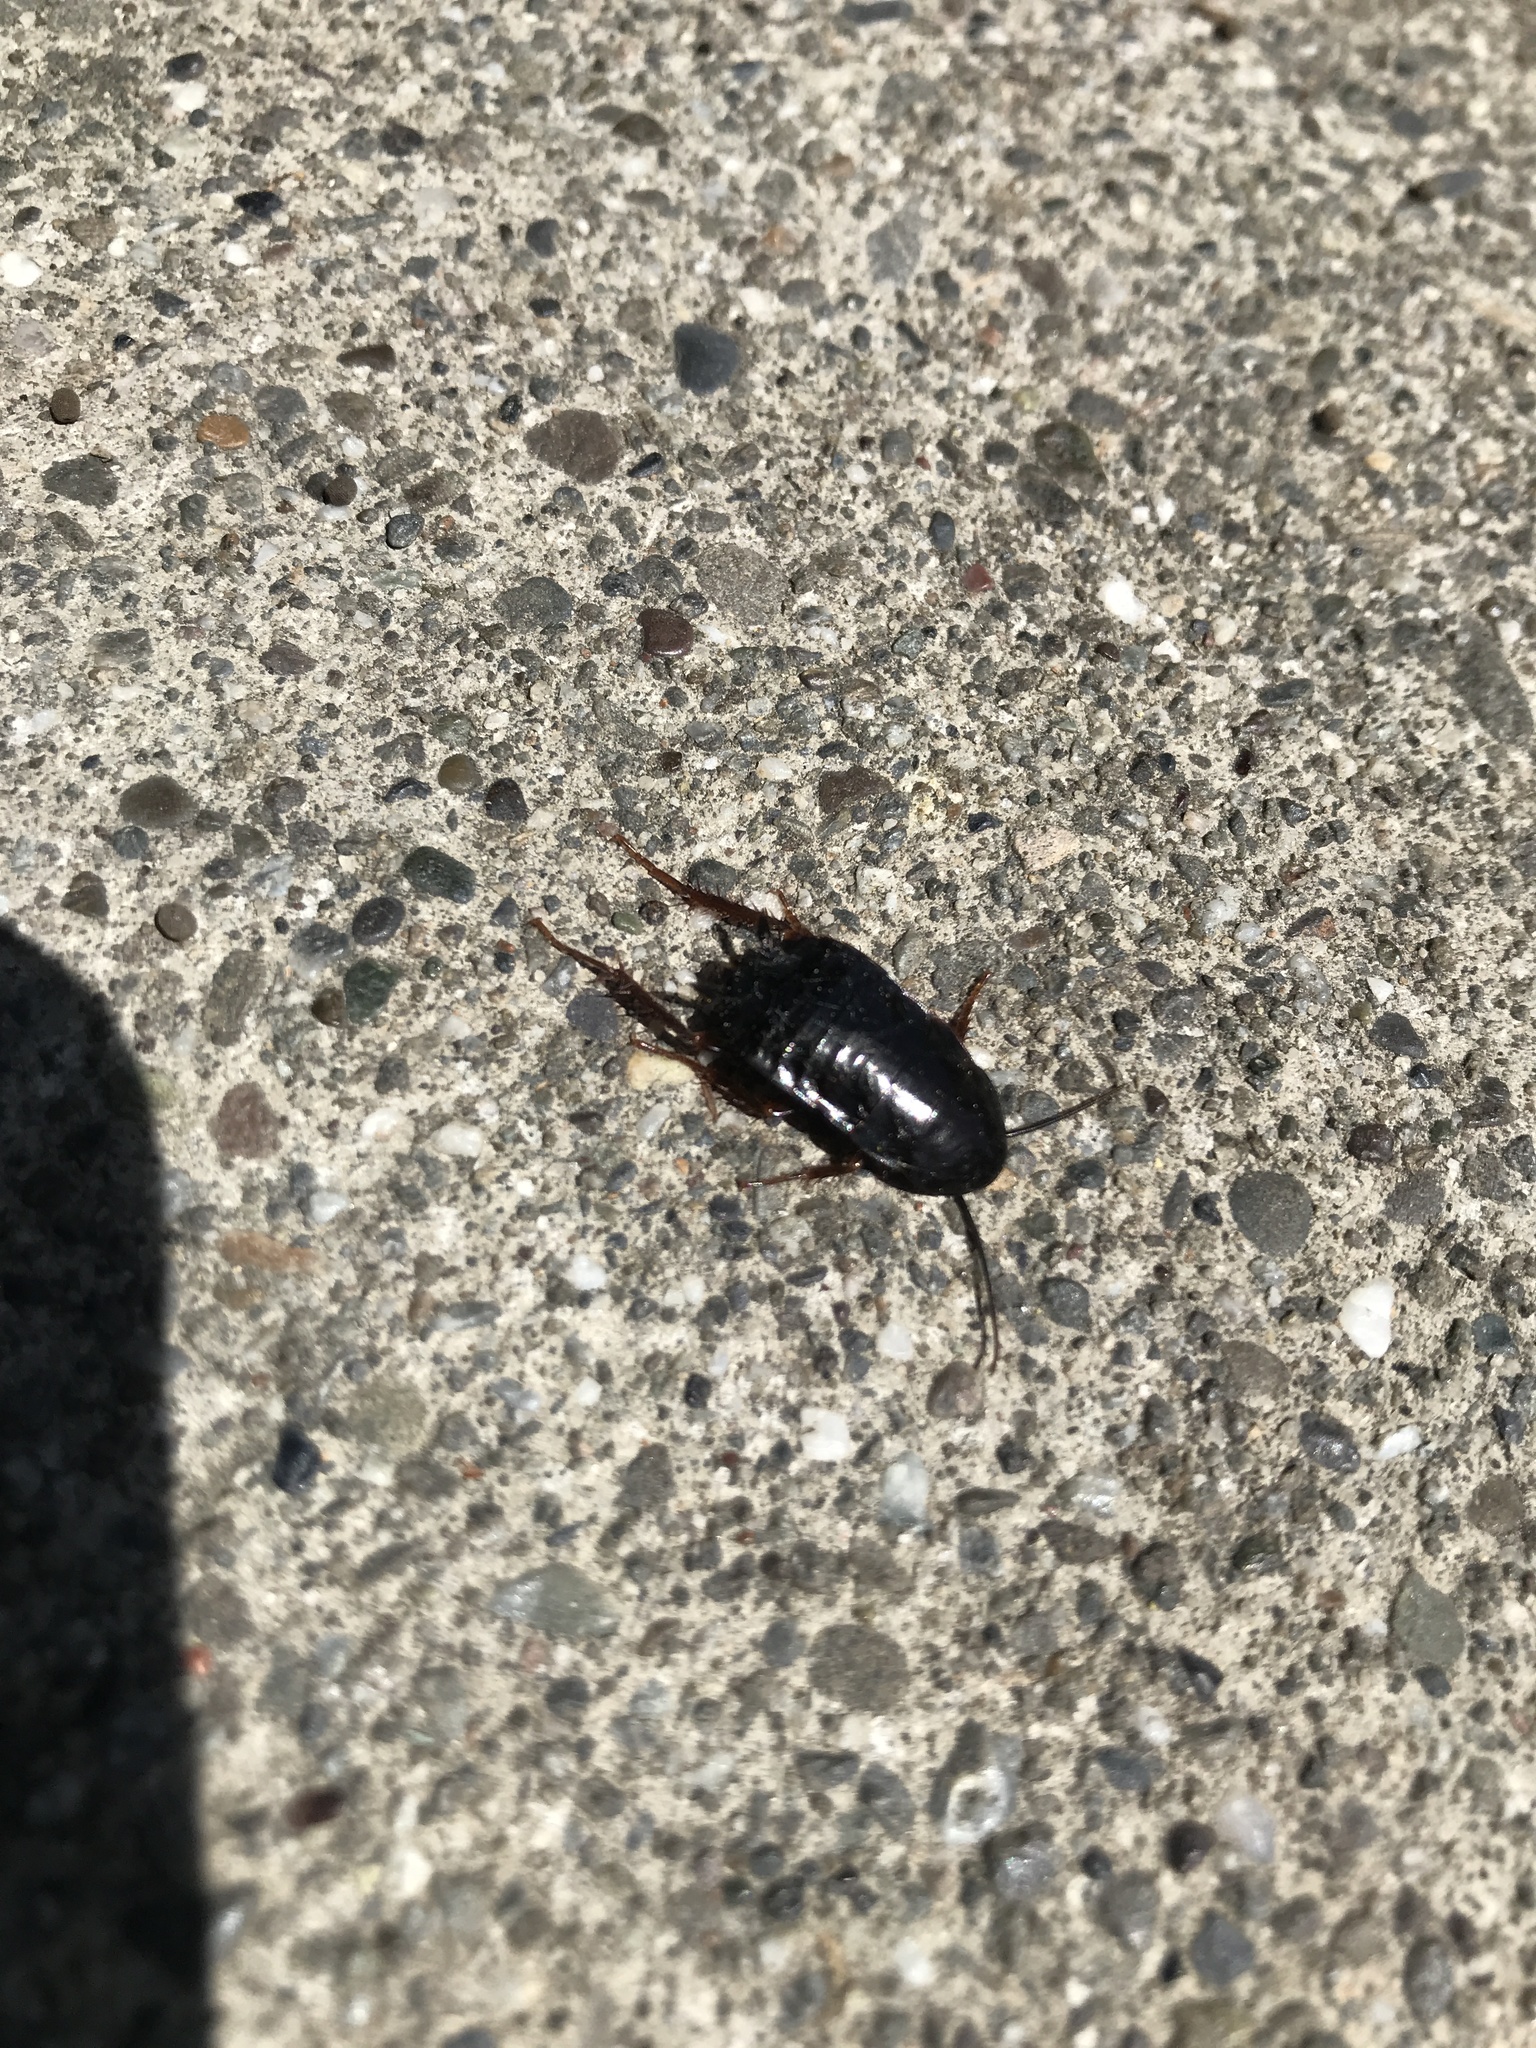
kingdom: Animalia
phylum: Arthropoda
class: Insecta
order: Blattodea
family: Blattidae
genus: Blatta
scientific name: Blatta orientalis
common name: Oriental cockroach
